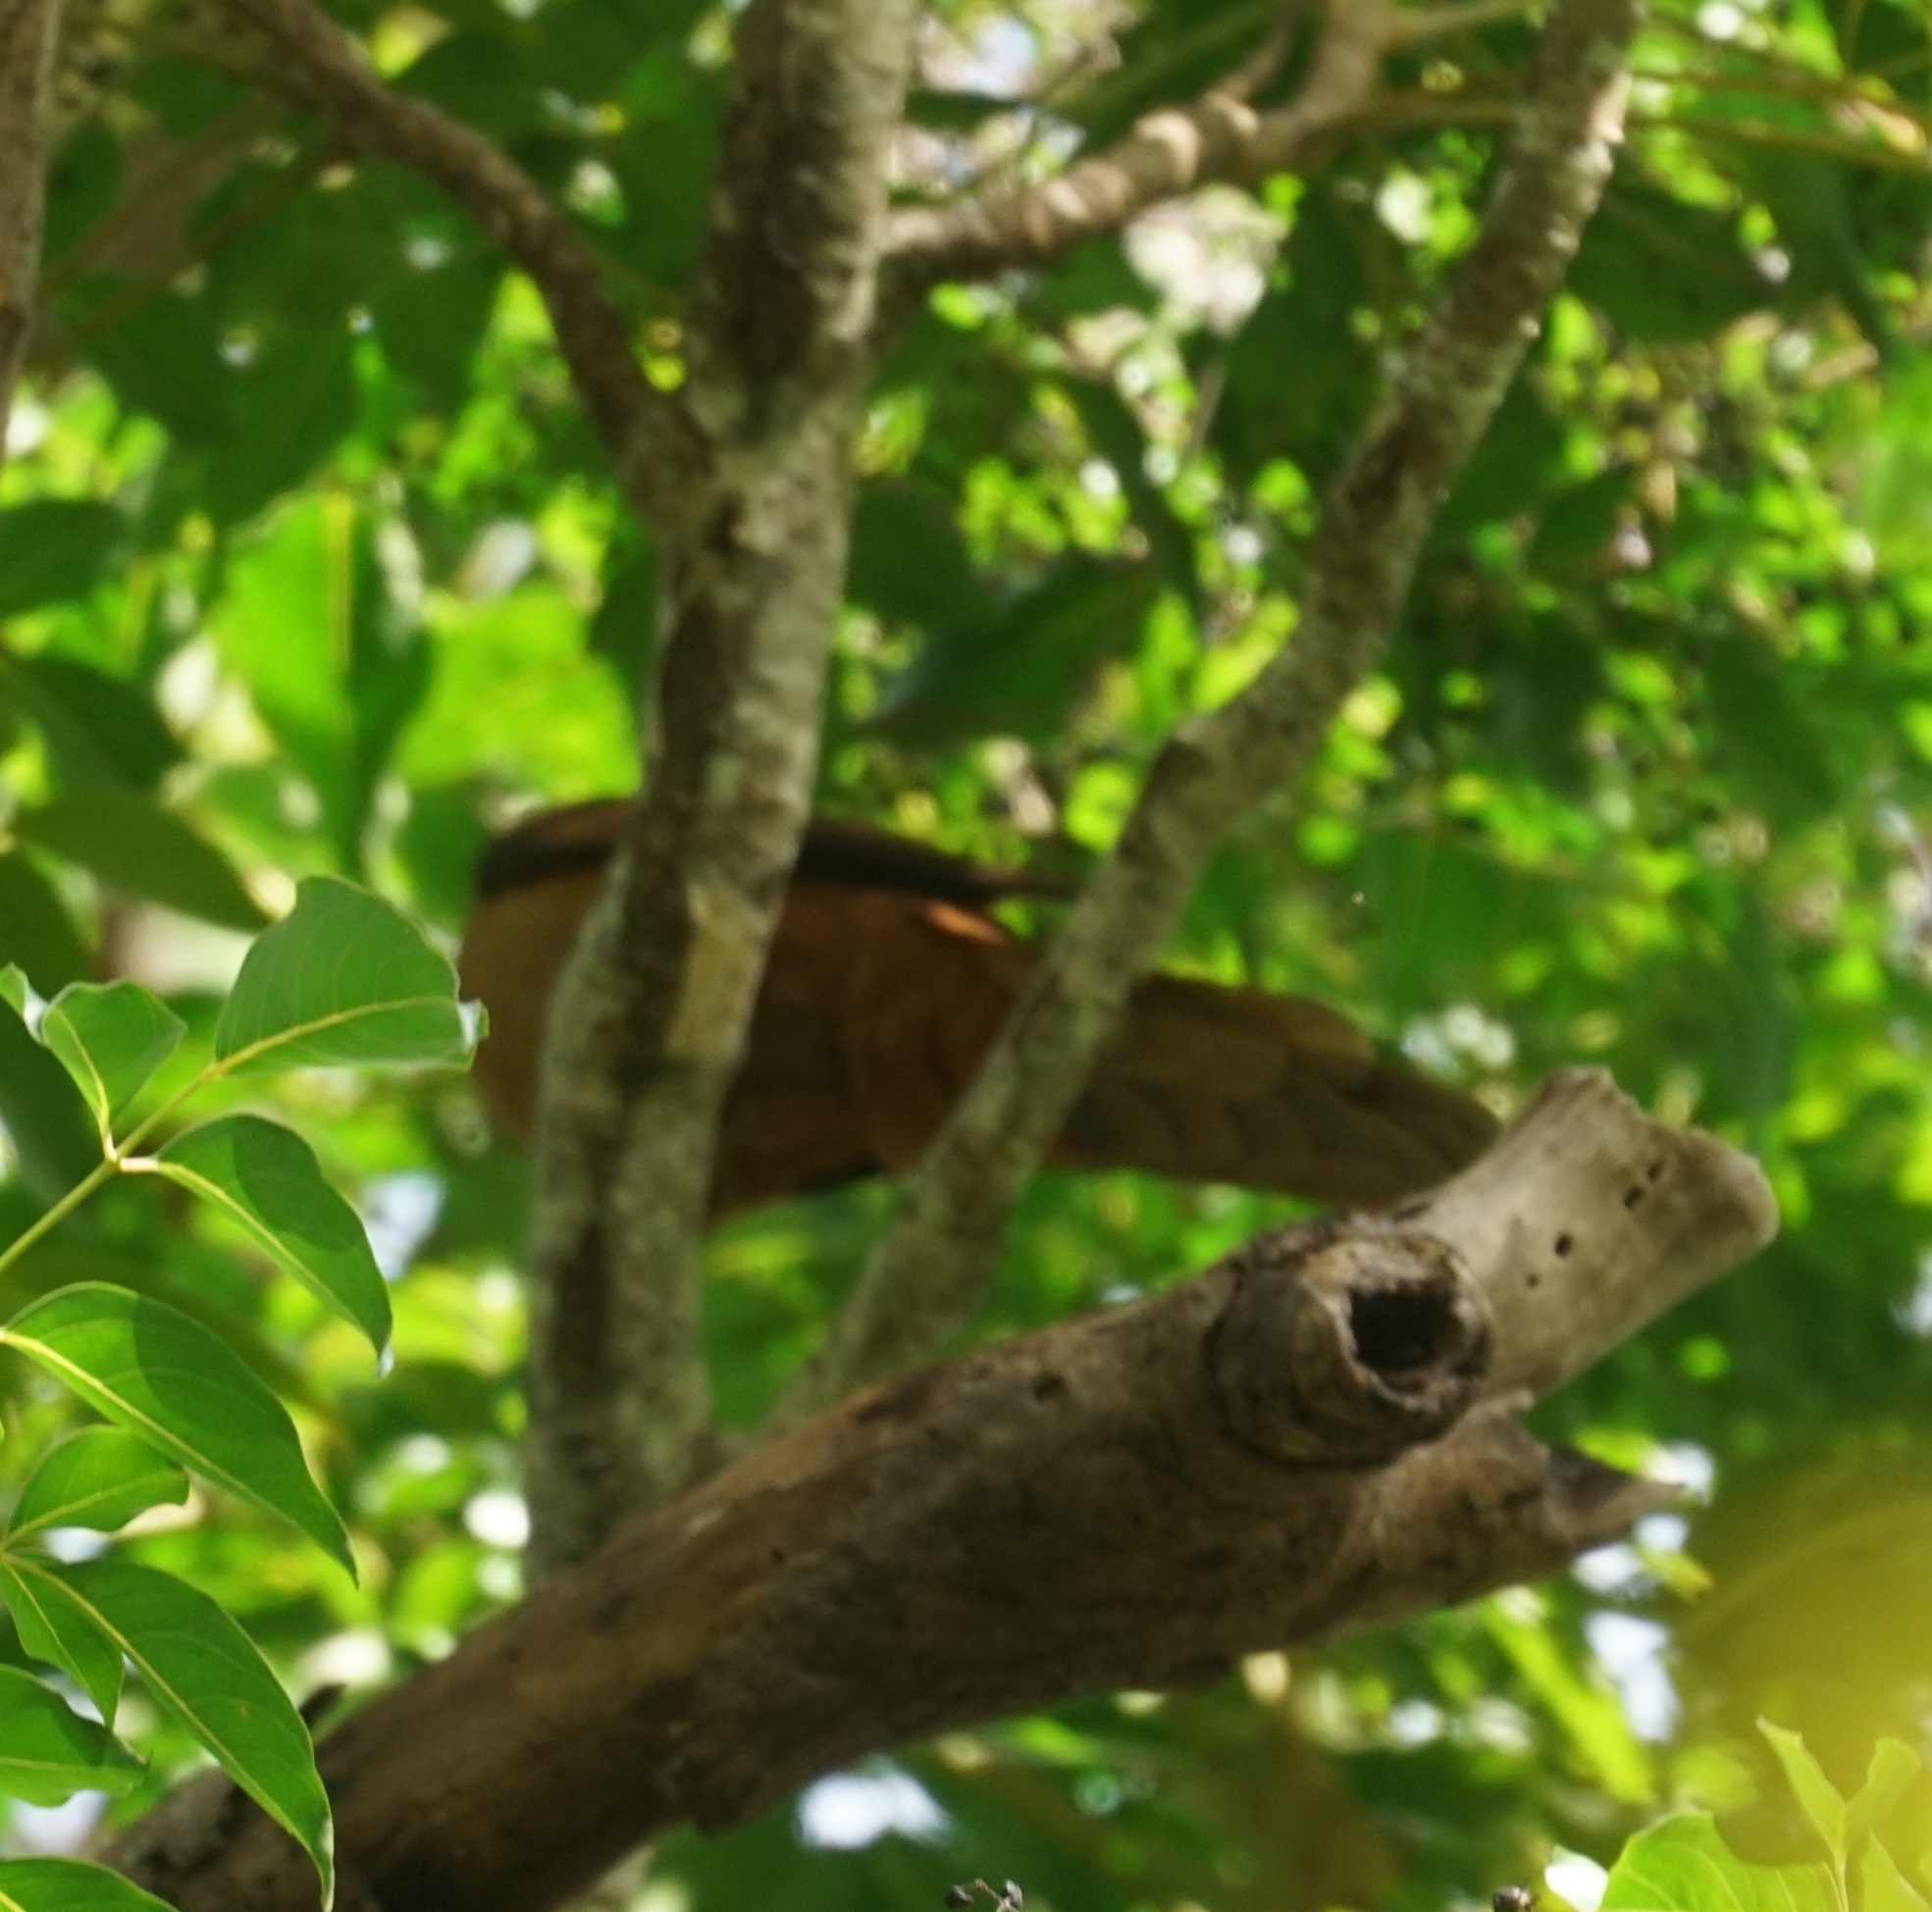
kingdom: Animalia
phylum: Chordata
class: Aves
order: Columbiformes
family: Columbidae
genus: Macropygia
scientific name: Macropygia phasianella
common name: Brown cuckoo-dove
